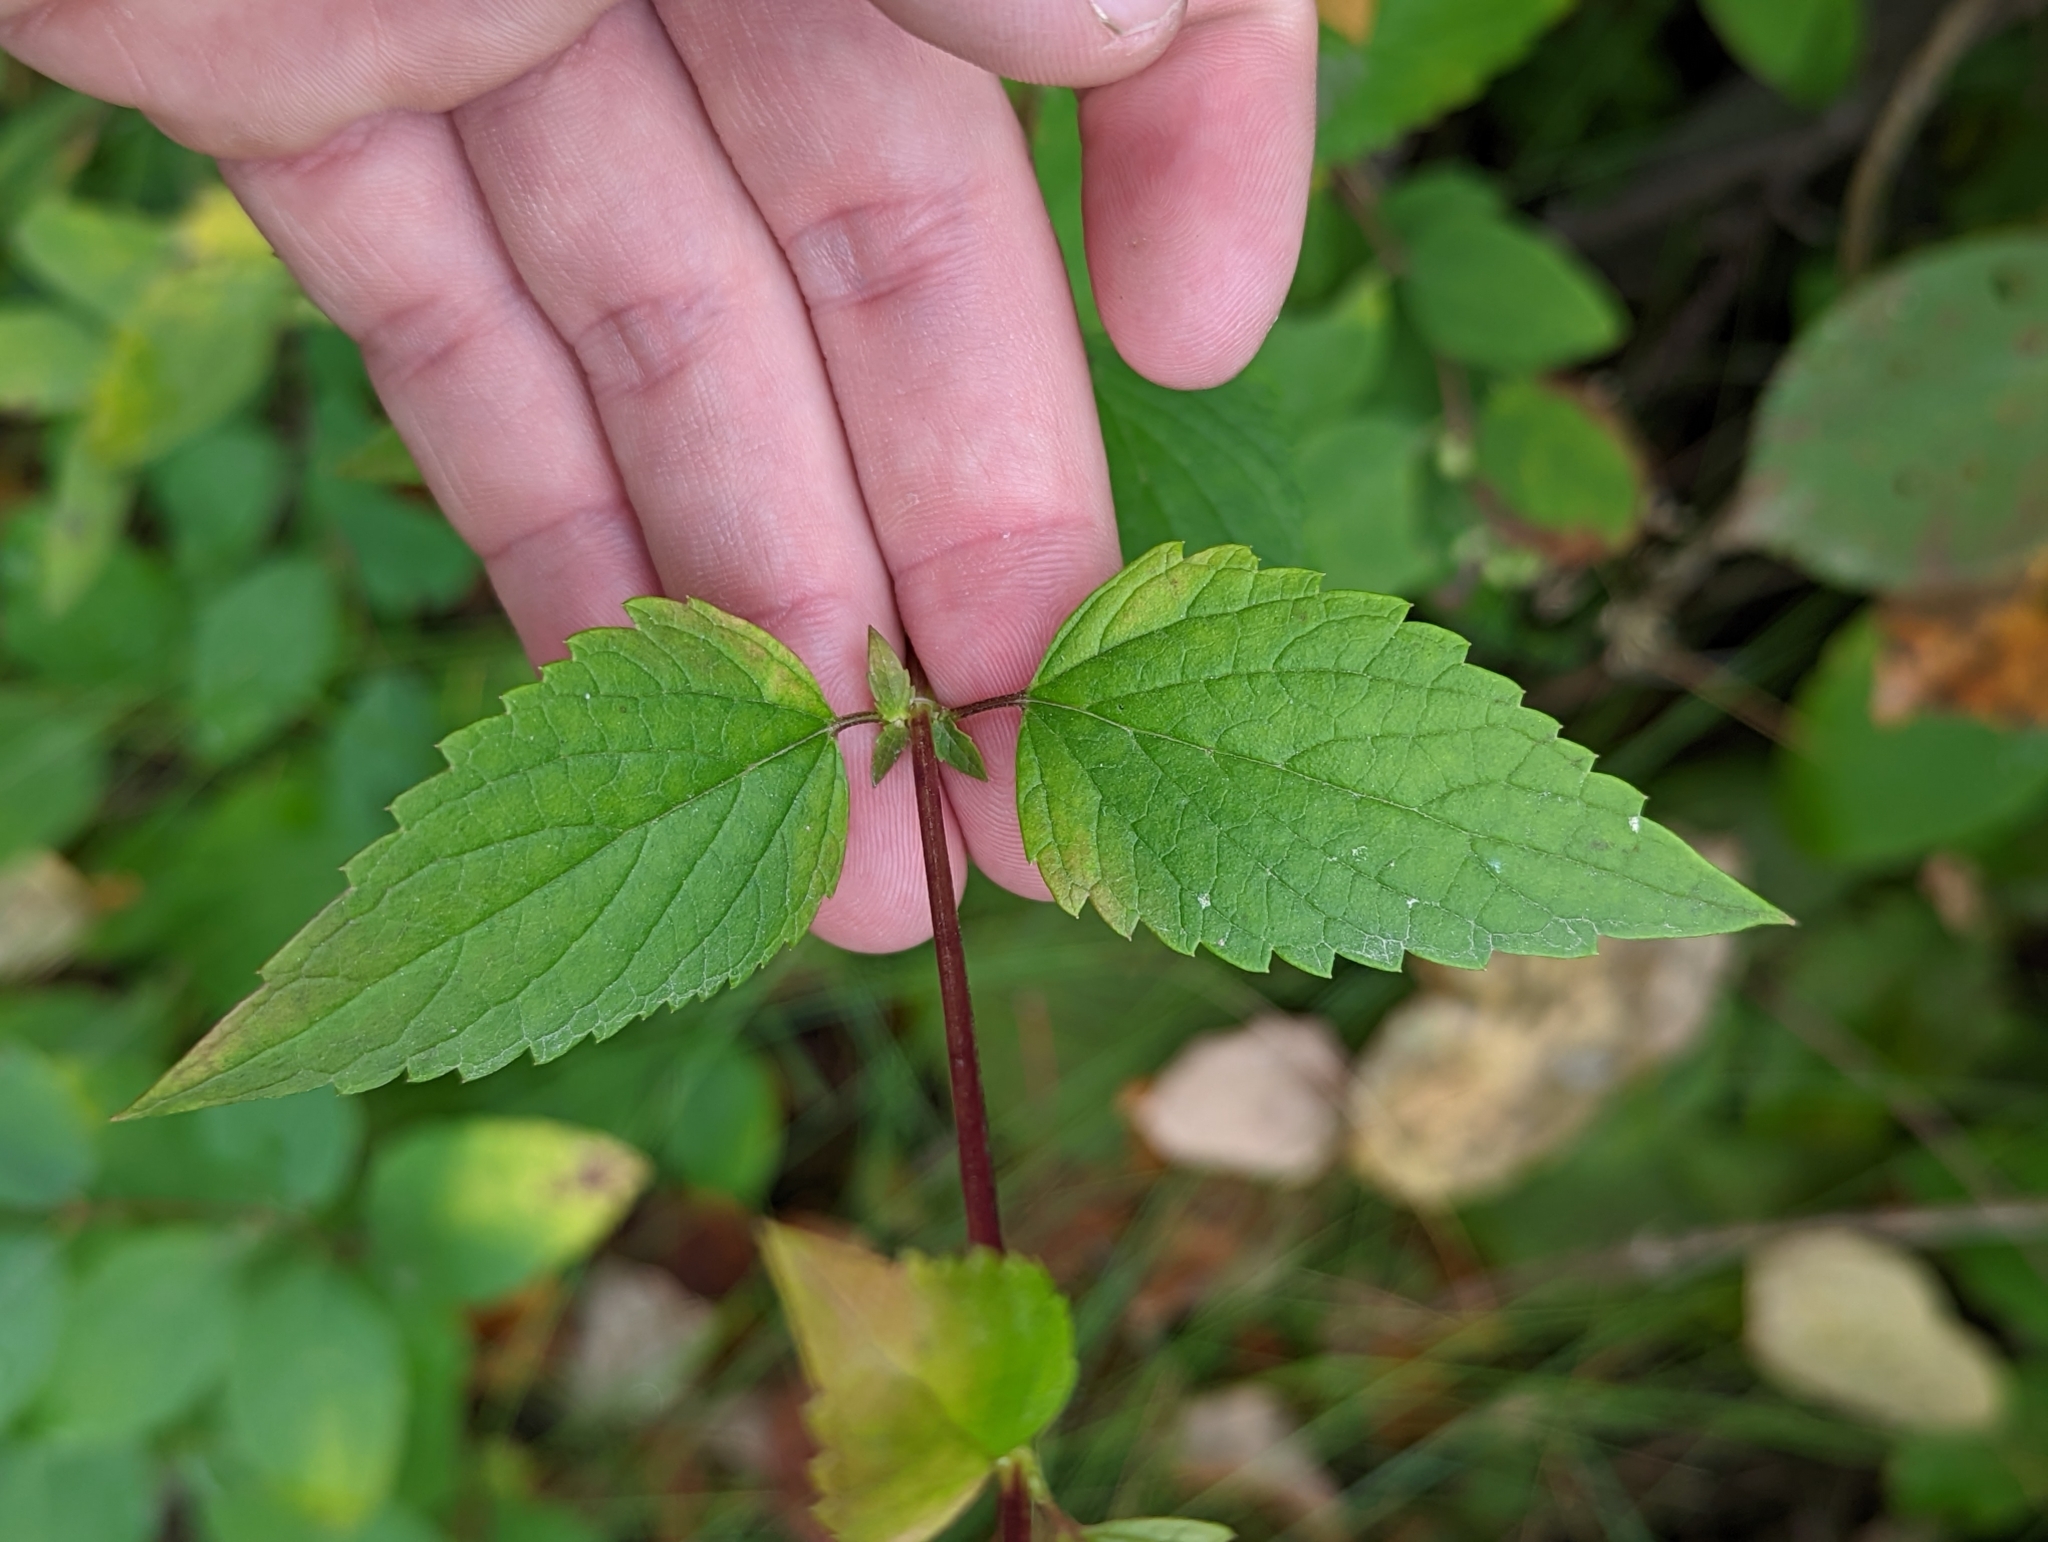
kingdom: Plantae
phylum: Tracheophyta
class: Magnoliopsida
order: Lamiales
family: Lamiaceae
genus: Agastache
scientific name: Agastache foeniculum
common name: Anise hyssop
